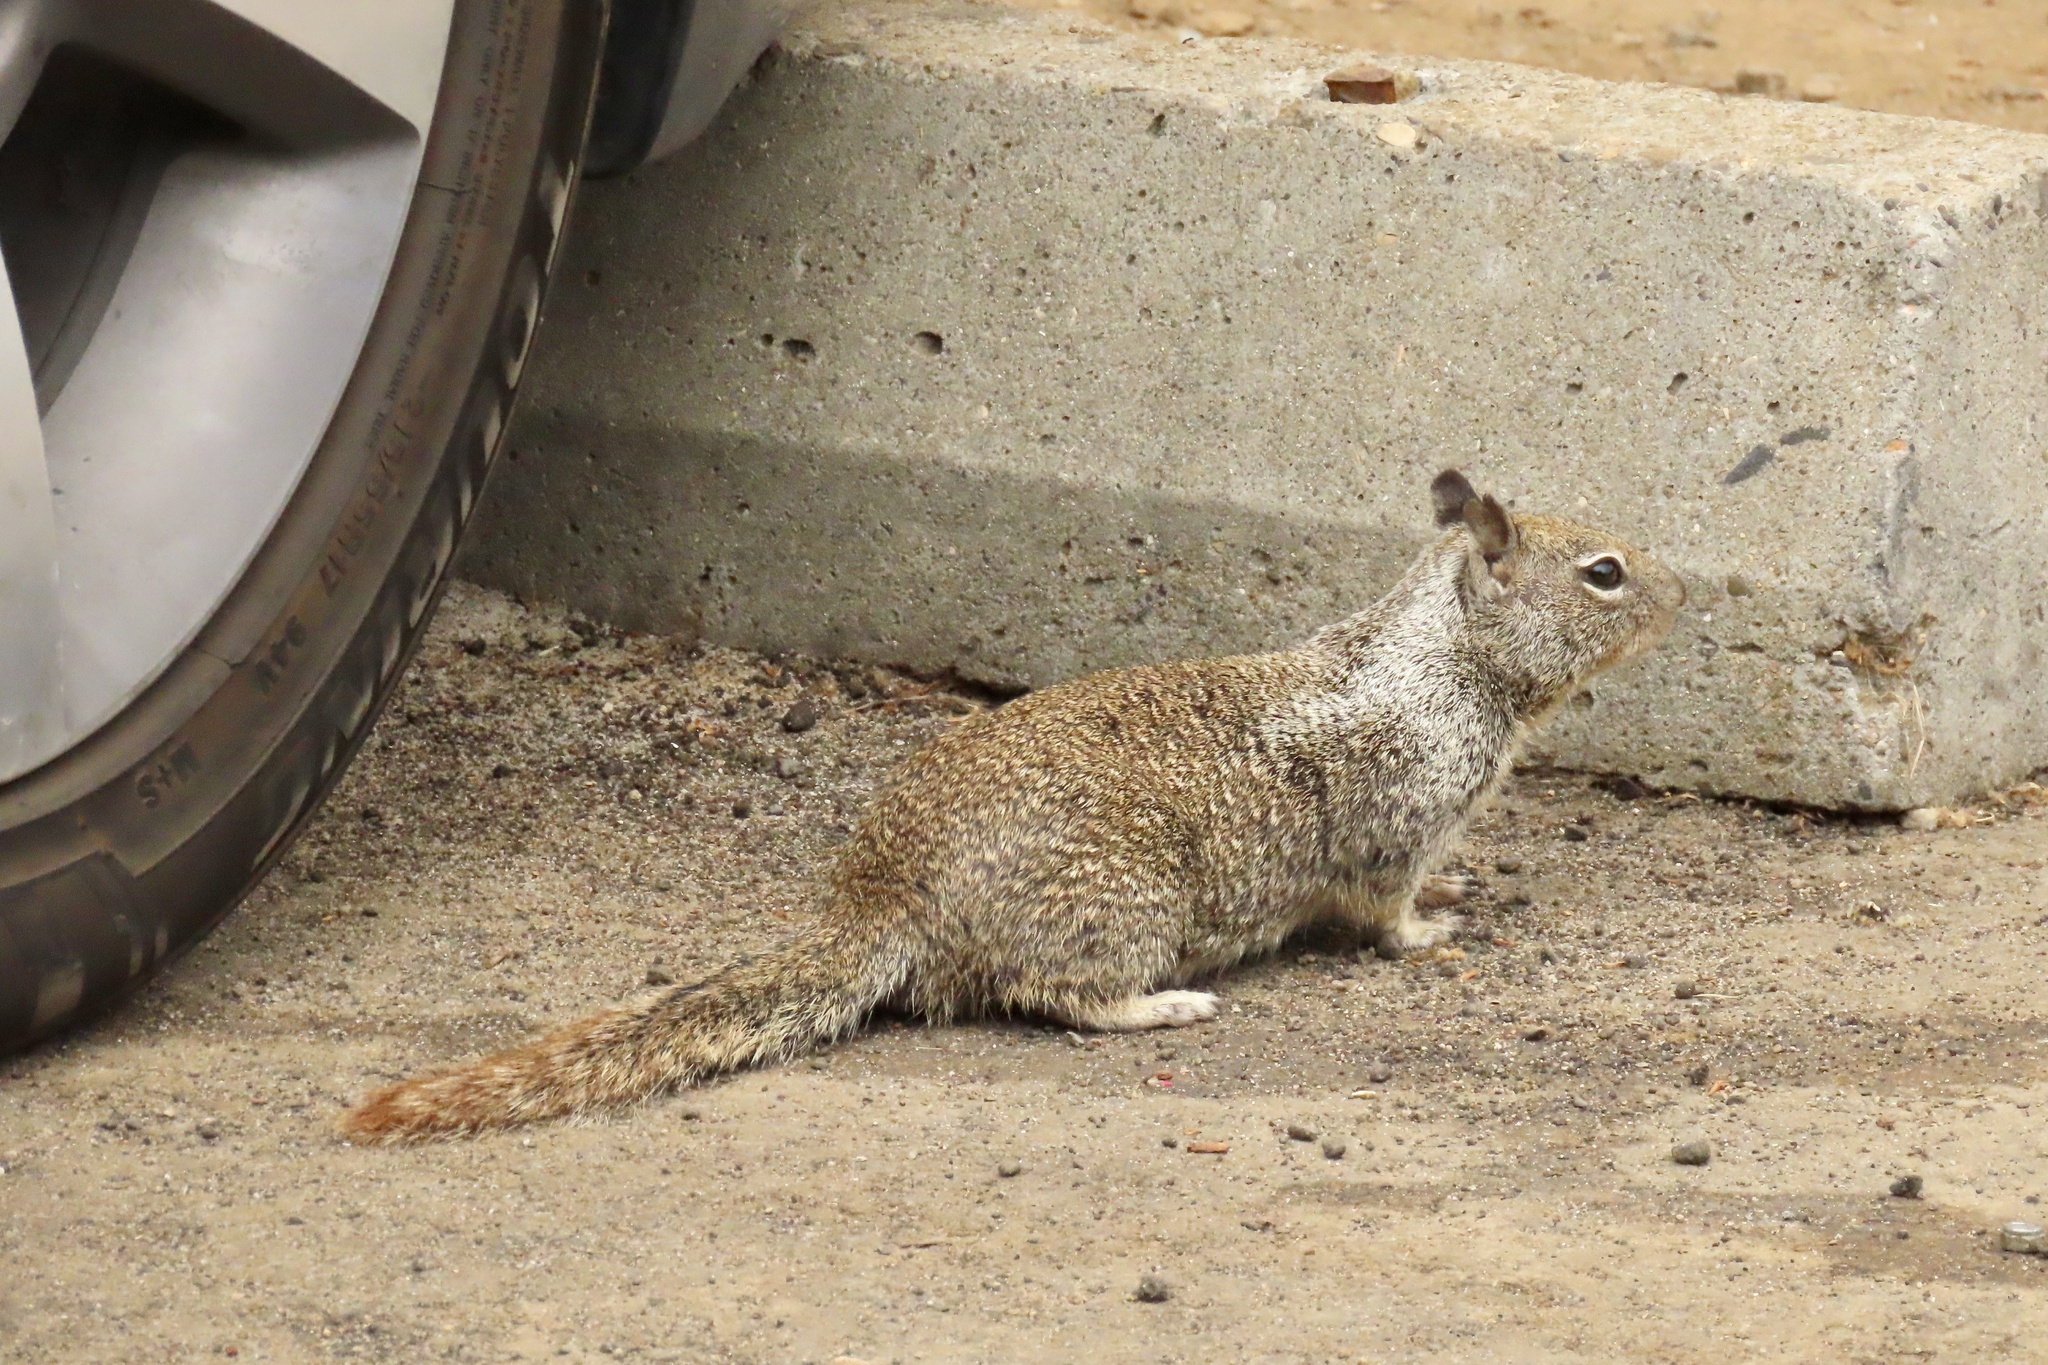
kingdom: Animalia
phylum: Chordata
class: Mammalia
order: Rodentia
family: Sciuridae
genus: Otospermophilus
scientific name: Otospermophilus beecheyi
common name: California ground squirrel
